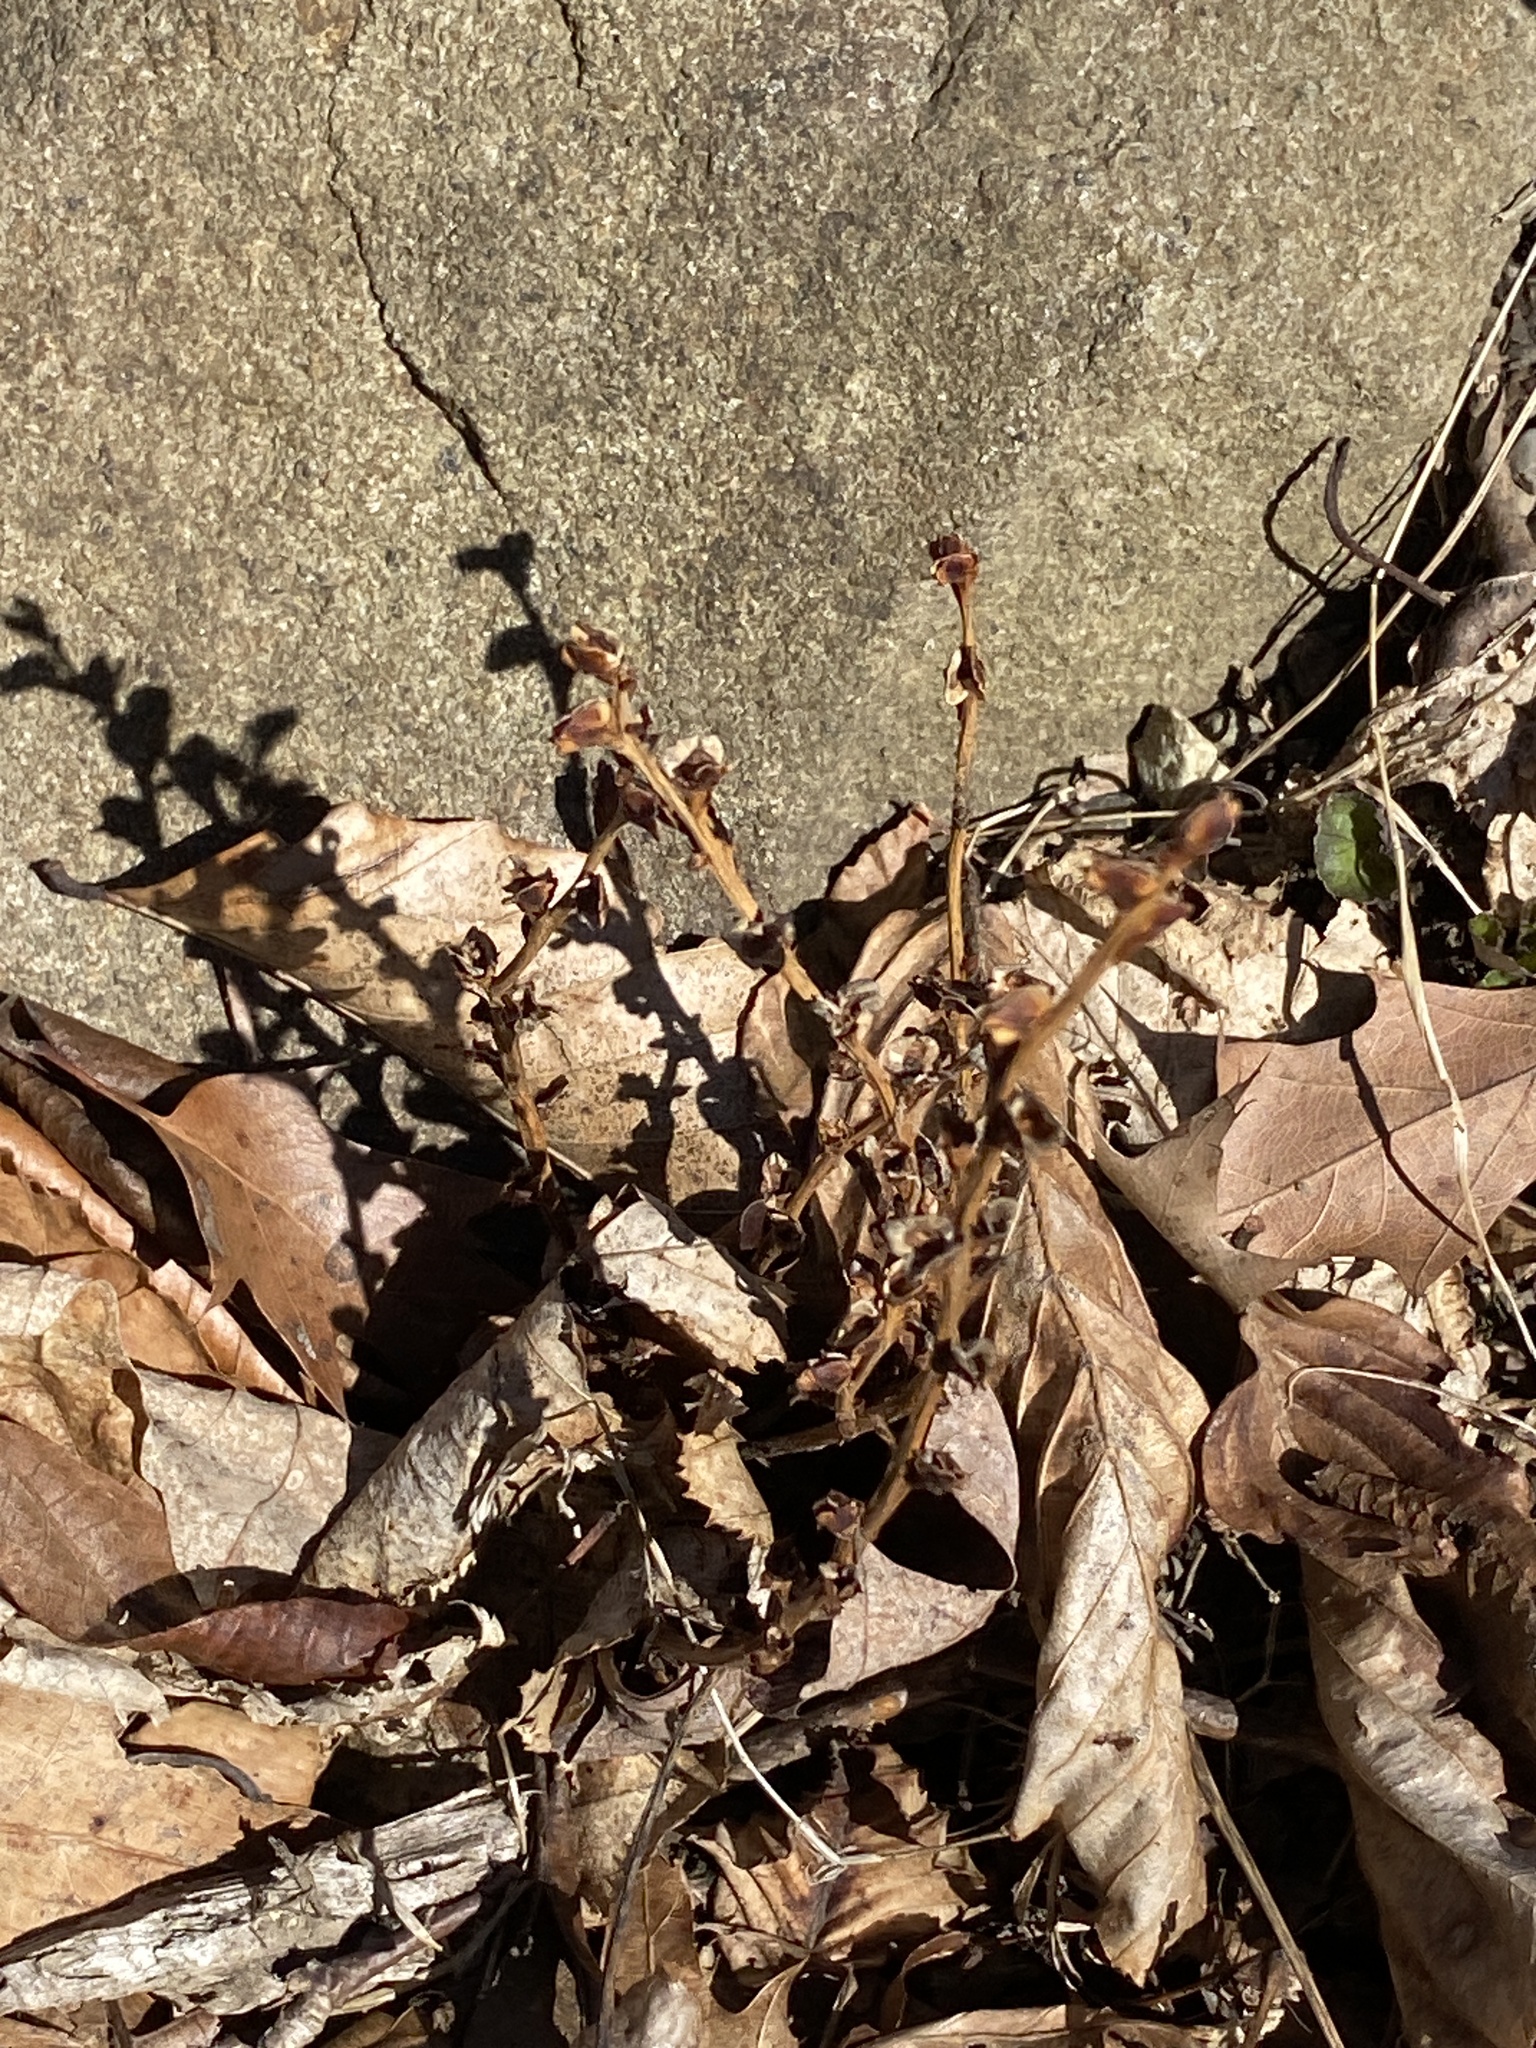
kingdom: Plantae
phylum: Tracheophyta
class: Magnoliopsida
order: Lamiales
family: Orobanchaceae
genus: Epifagus
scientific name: Epifagus virginiana
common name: Beechdrops
